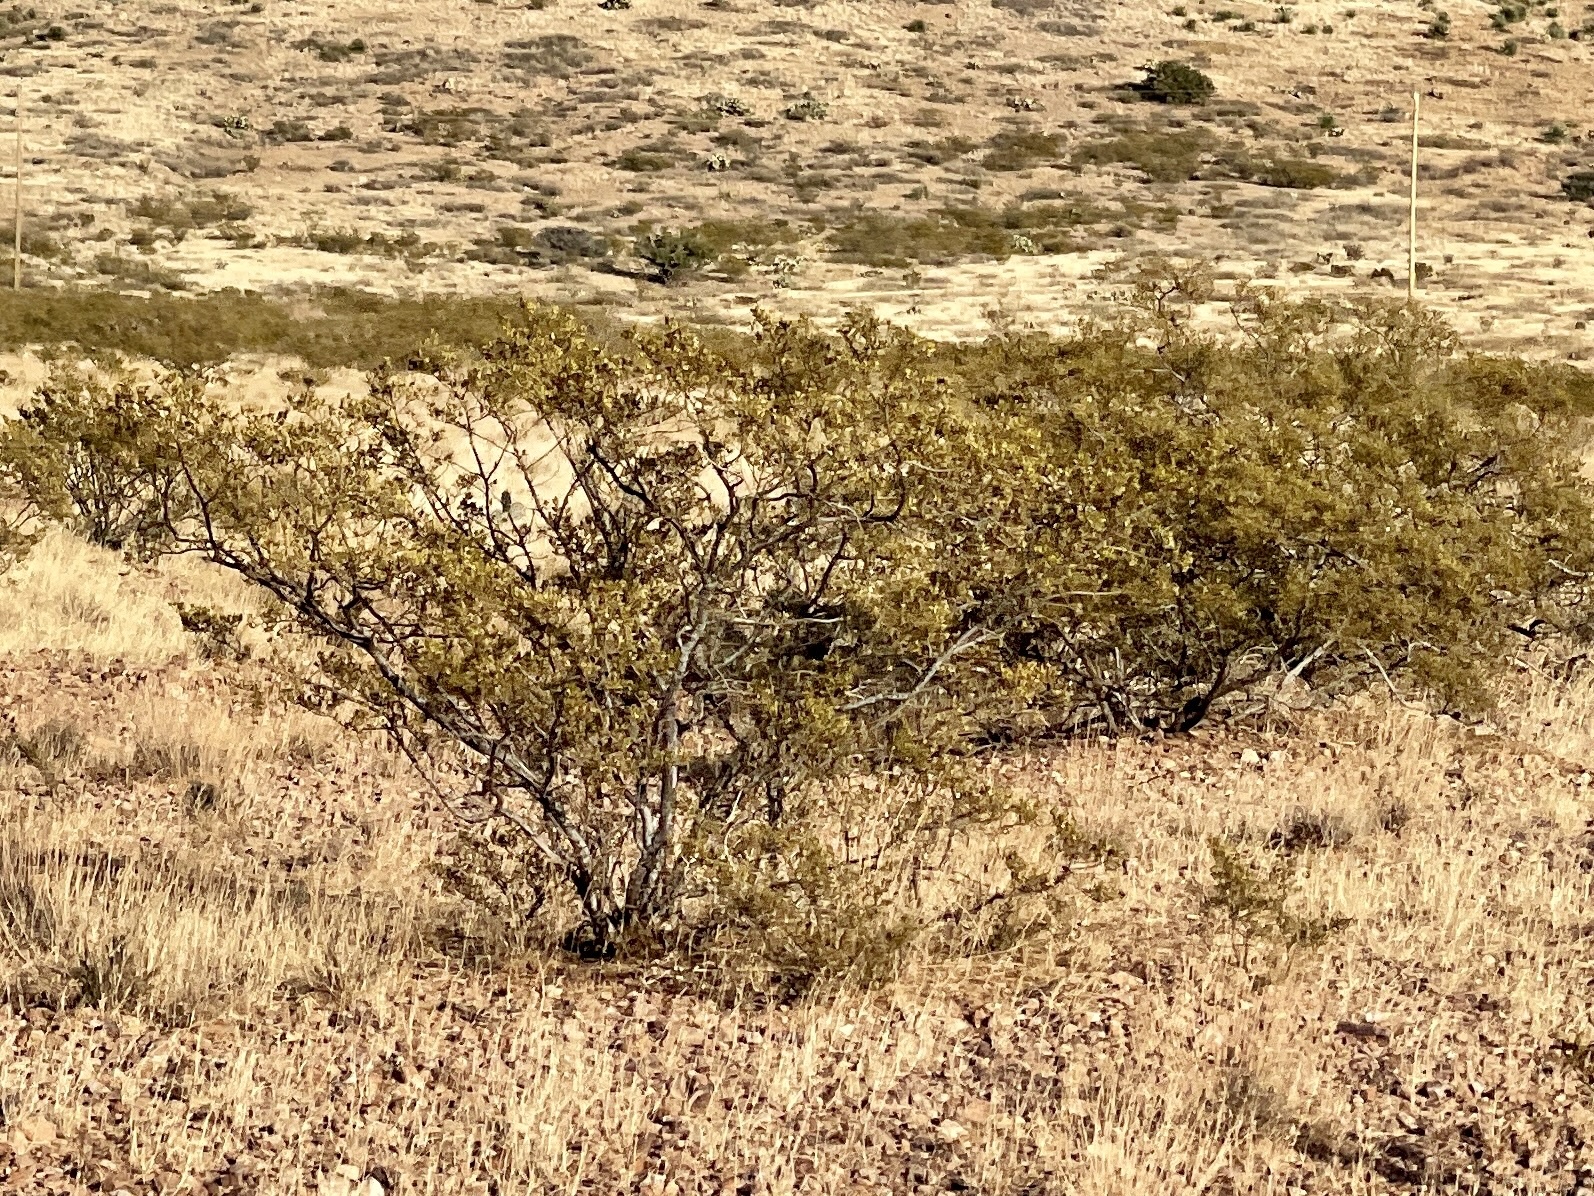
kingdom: Plantae
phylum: Tracheophyta
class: Magnoliopsida
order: Zygophyllales
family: Zygophyllaceae
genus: Larrea
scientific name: Larrea tridentata
